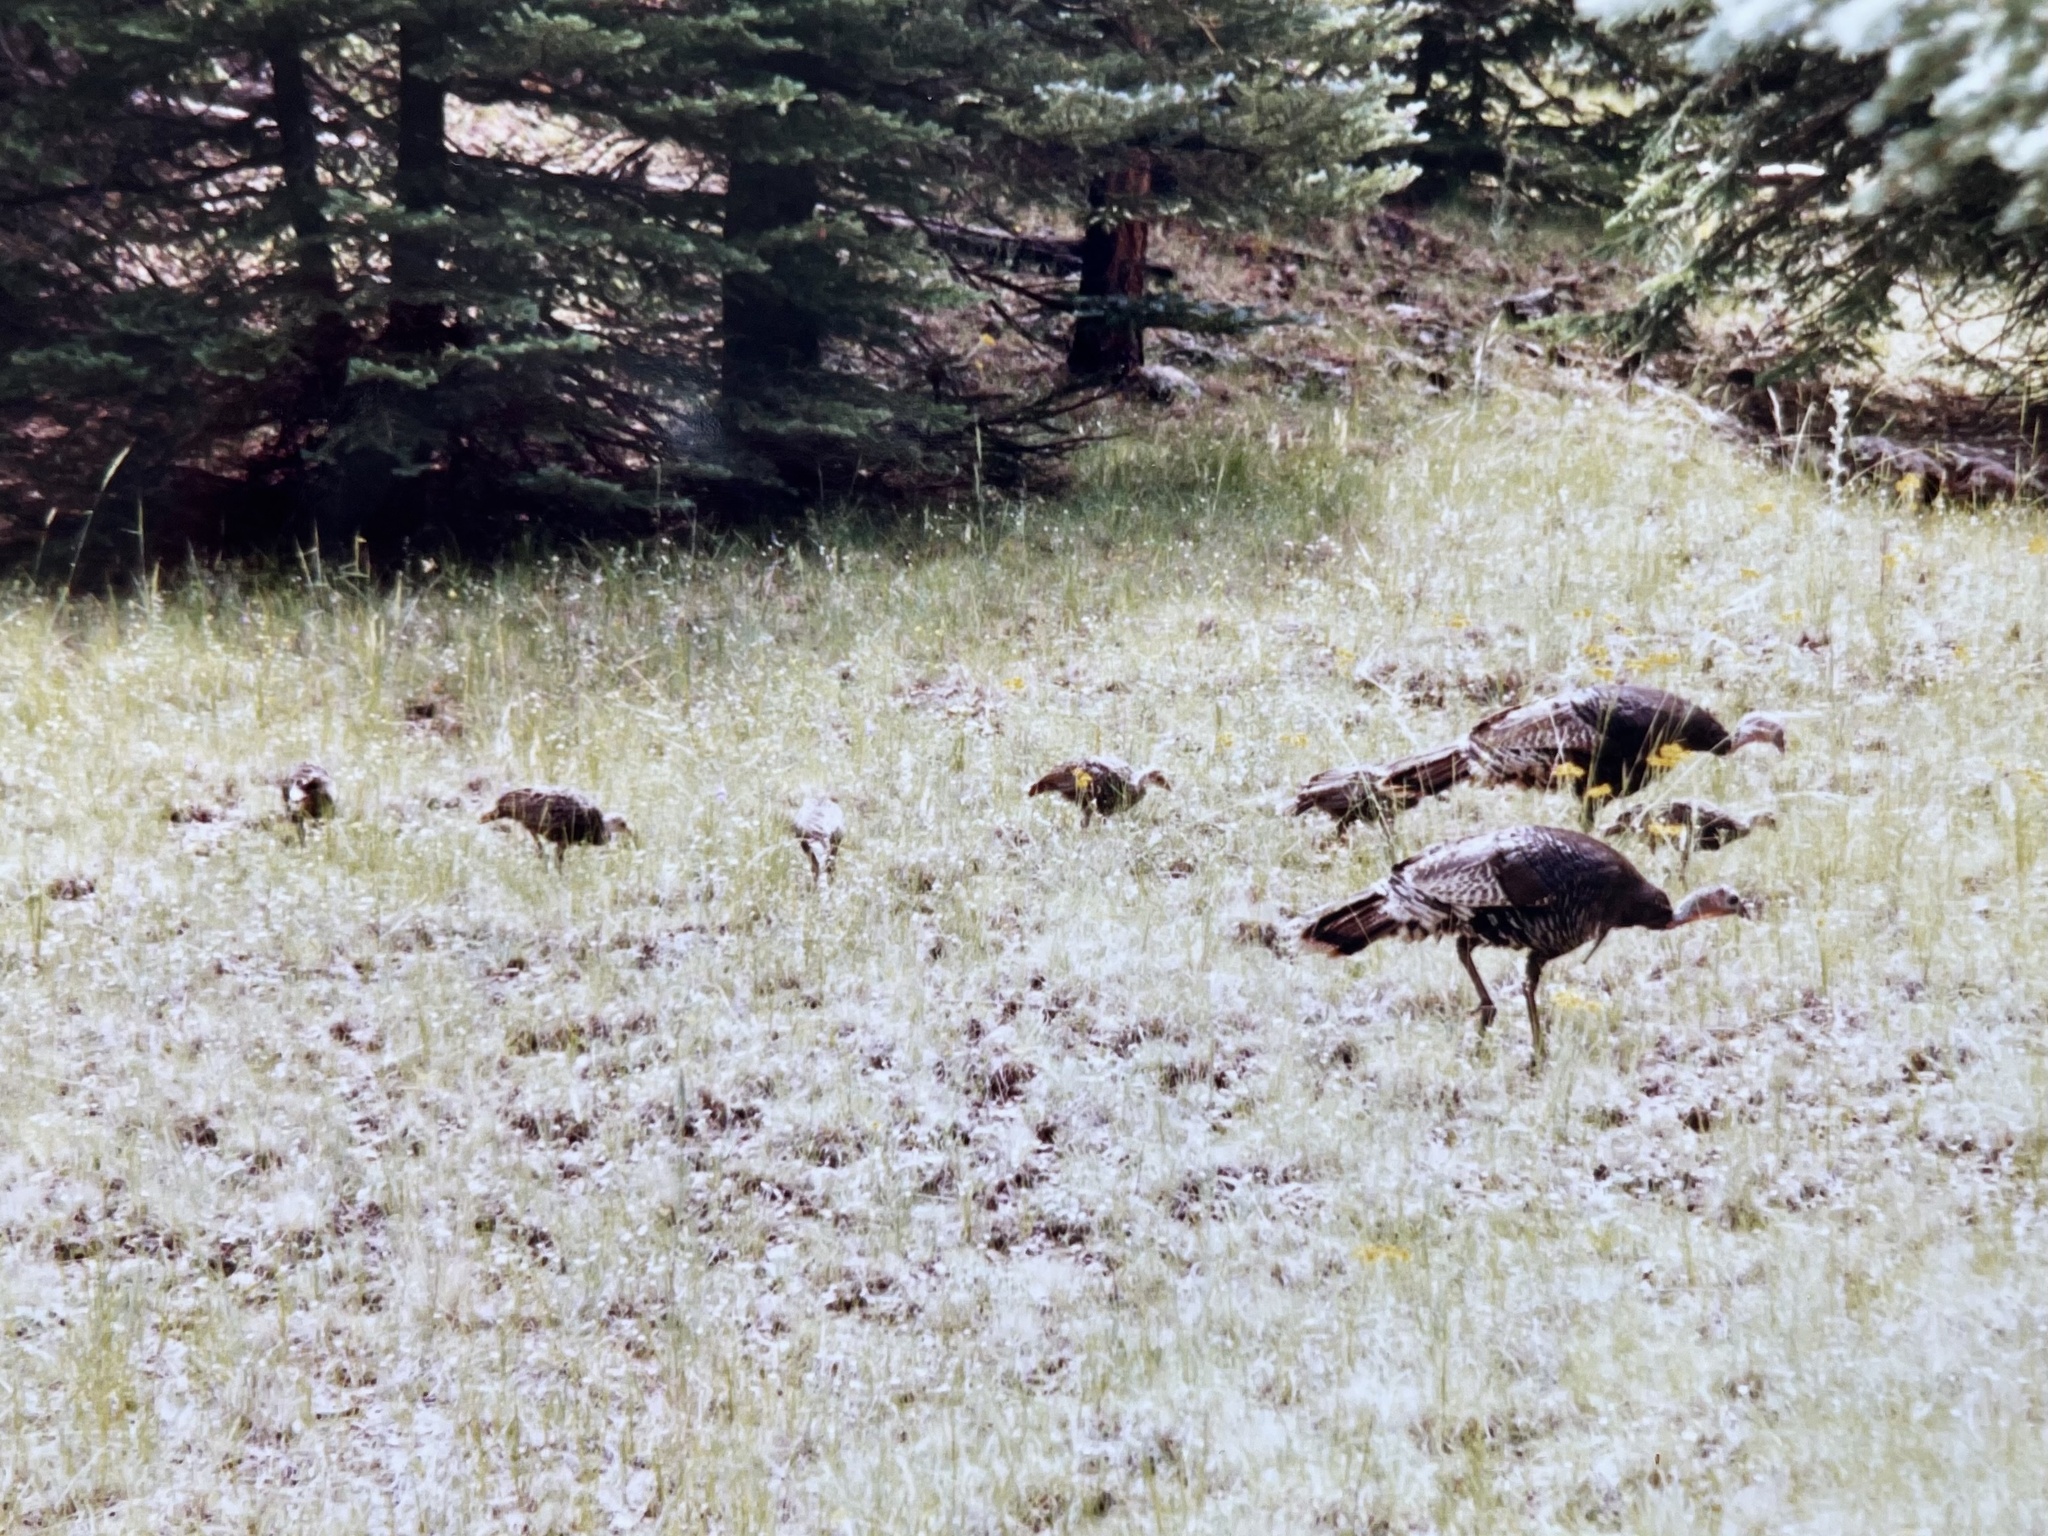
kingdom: Animalia
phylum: Chordata
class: Aves
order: Galliformes
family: Phasianidae
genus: Meleagris
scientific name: Meleagris gallopavo
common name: Wild turkey
